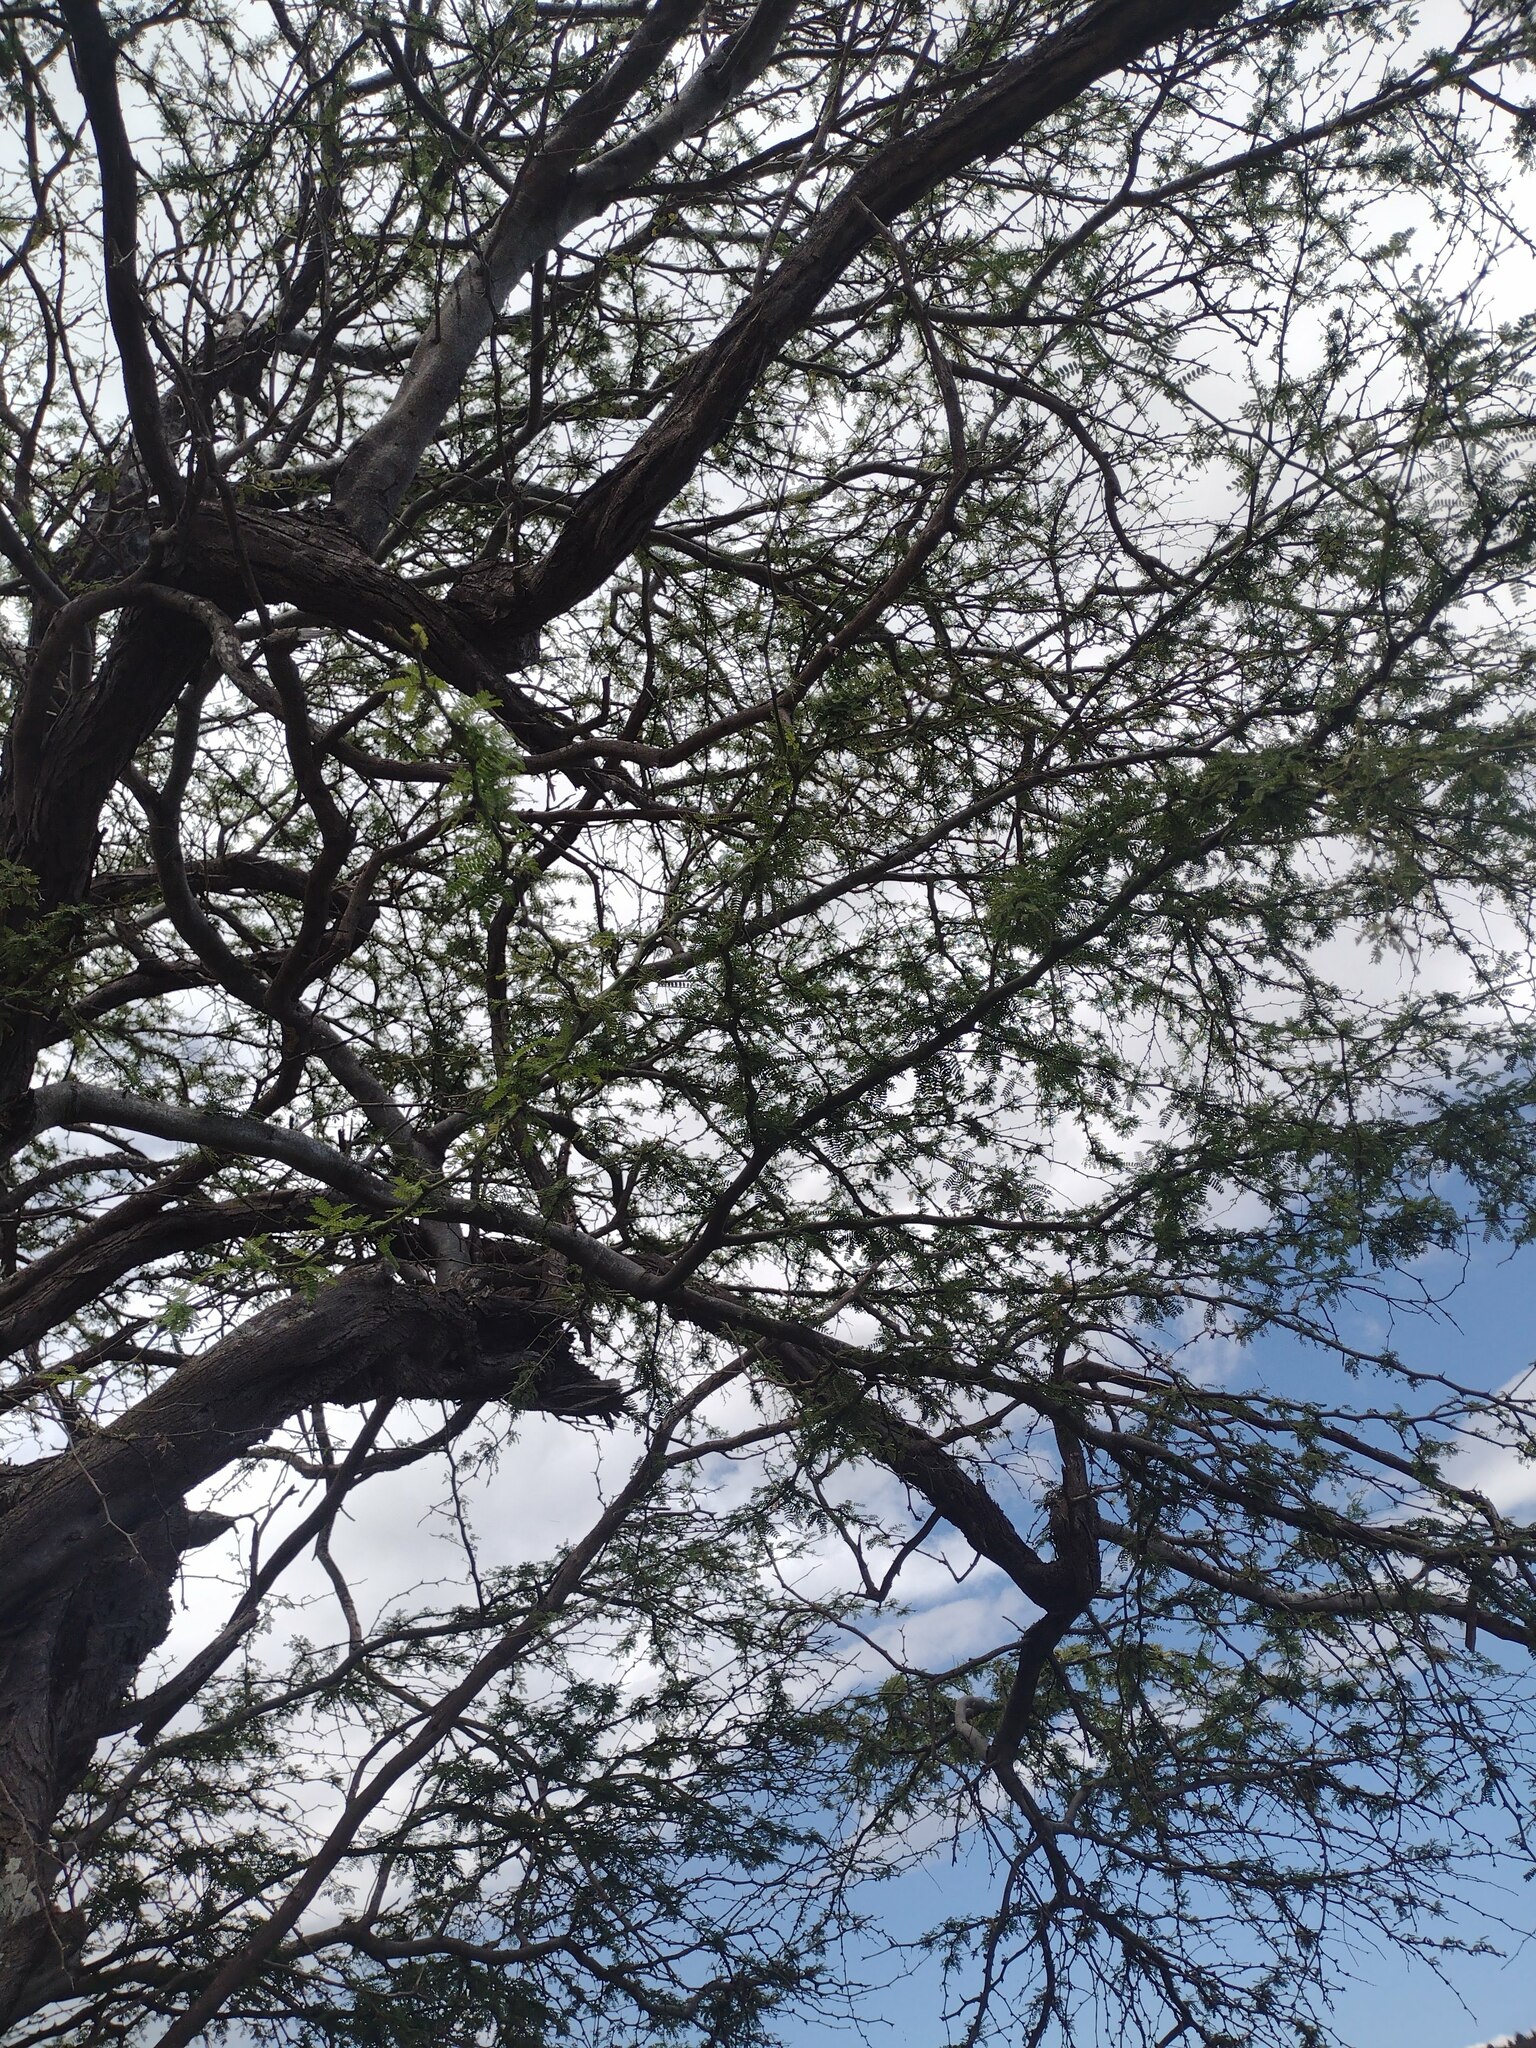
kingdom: Plantae
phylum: Tracheophyta
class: Magnoliopsida
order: Fabales
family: Fabaceae
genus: Prosopis
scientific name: Prosopis pallida
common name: Mesquite
